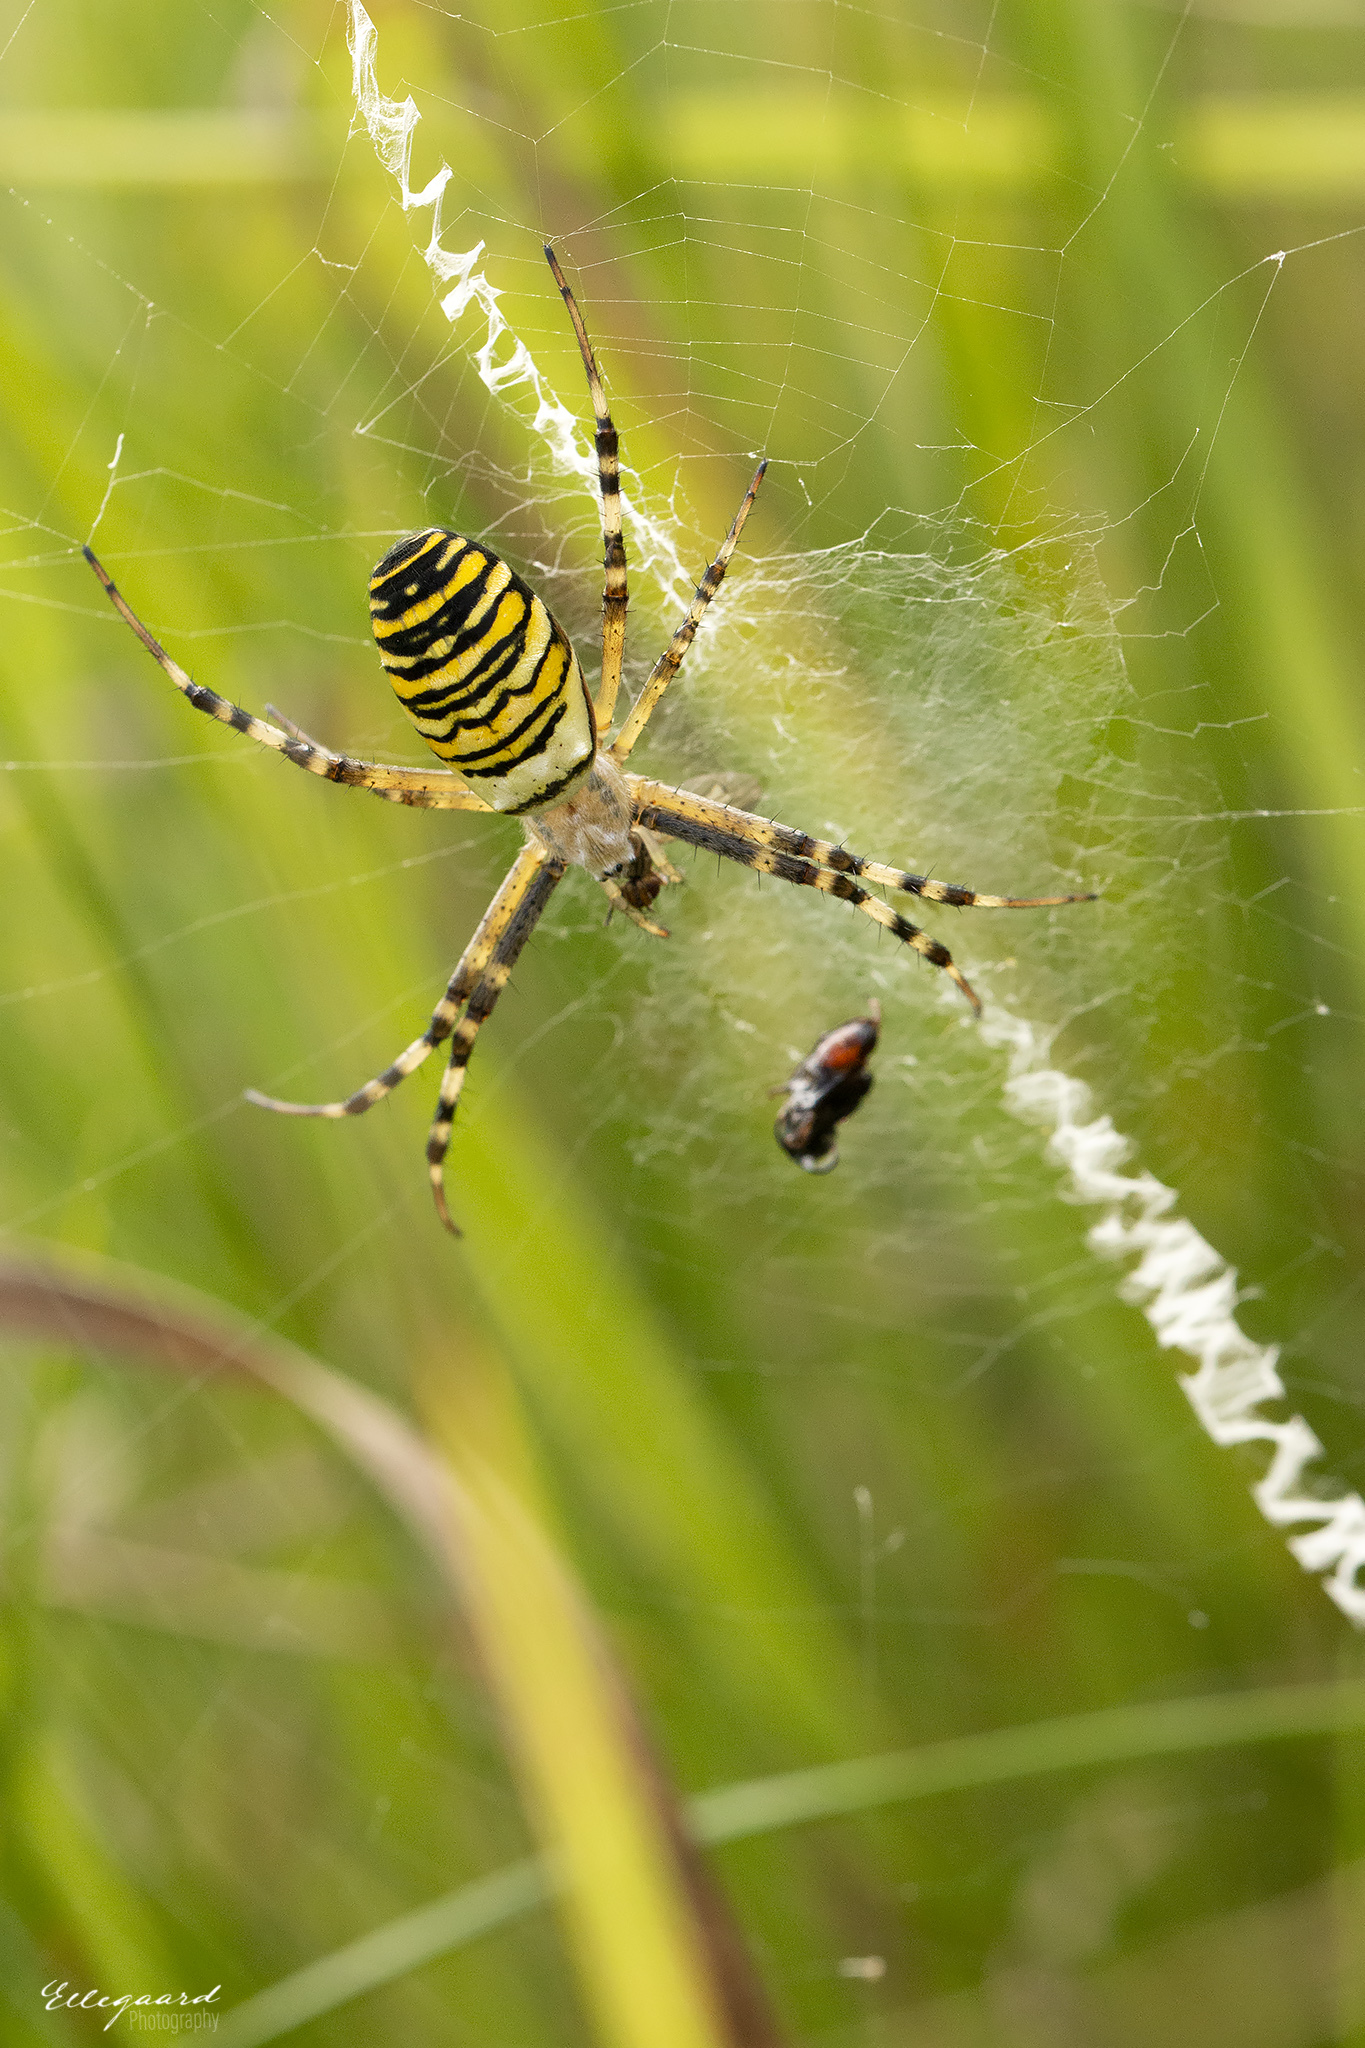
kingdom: Animalia
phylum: Arthropoda
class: Arachnida
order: Araneae
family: Araneidae
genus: Argiope
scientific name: Argiope bruennichi
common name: Wasp spider
